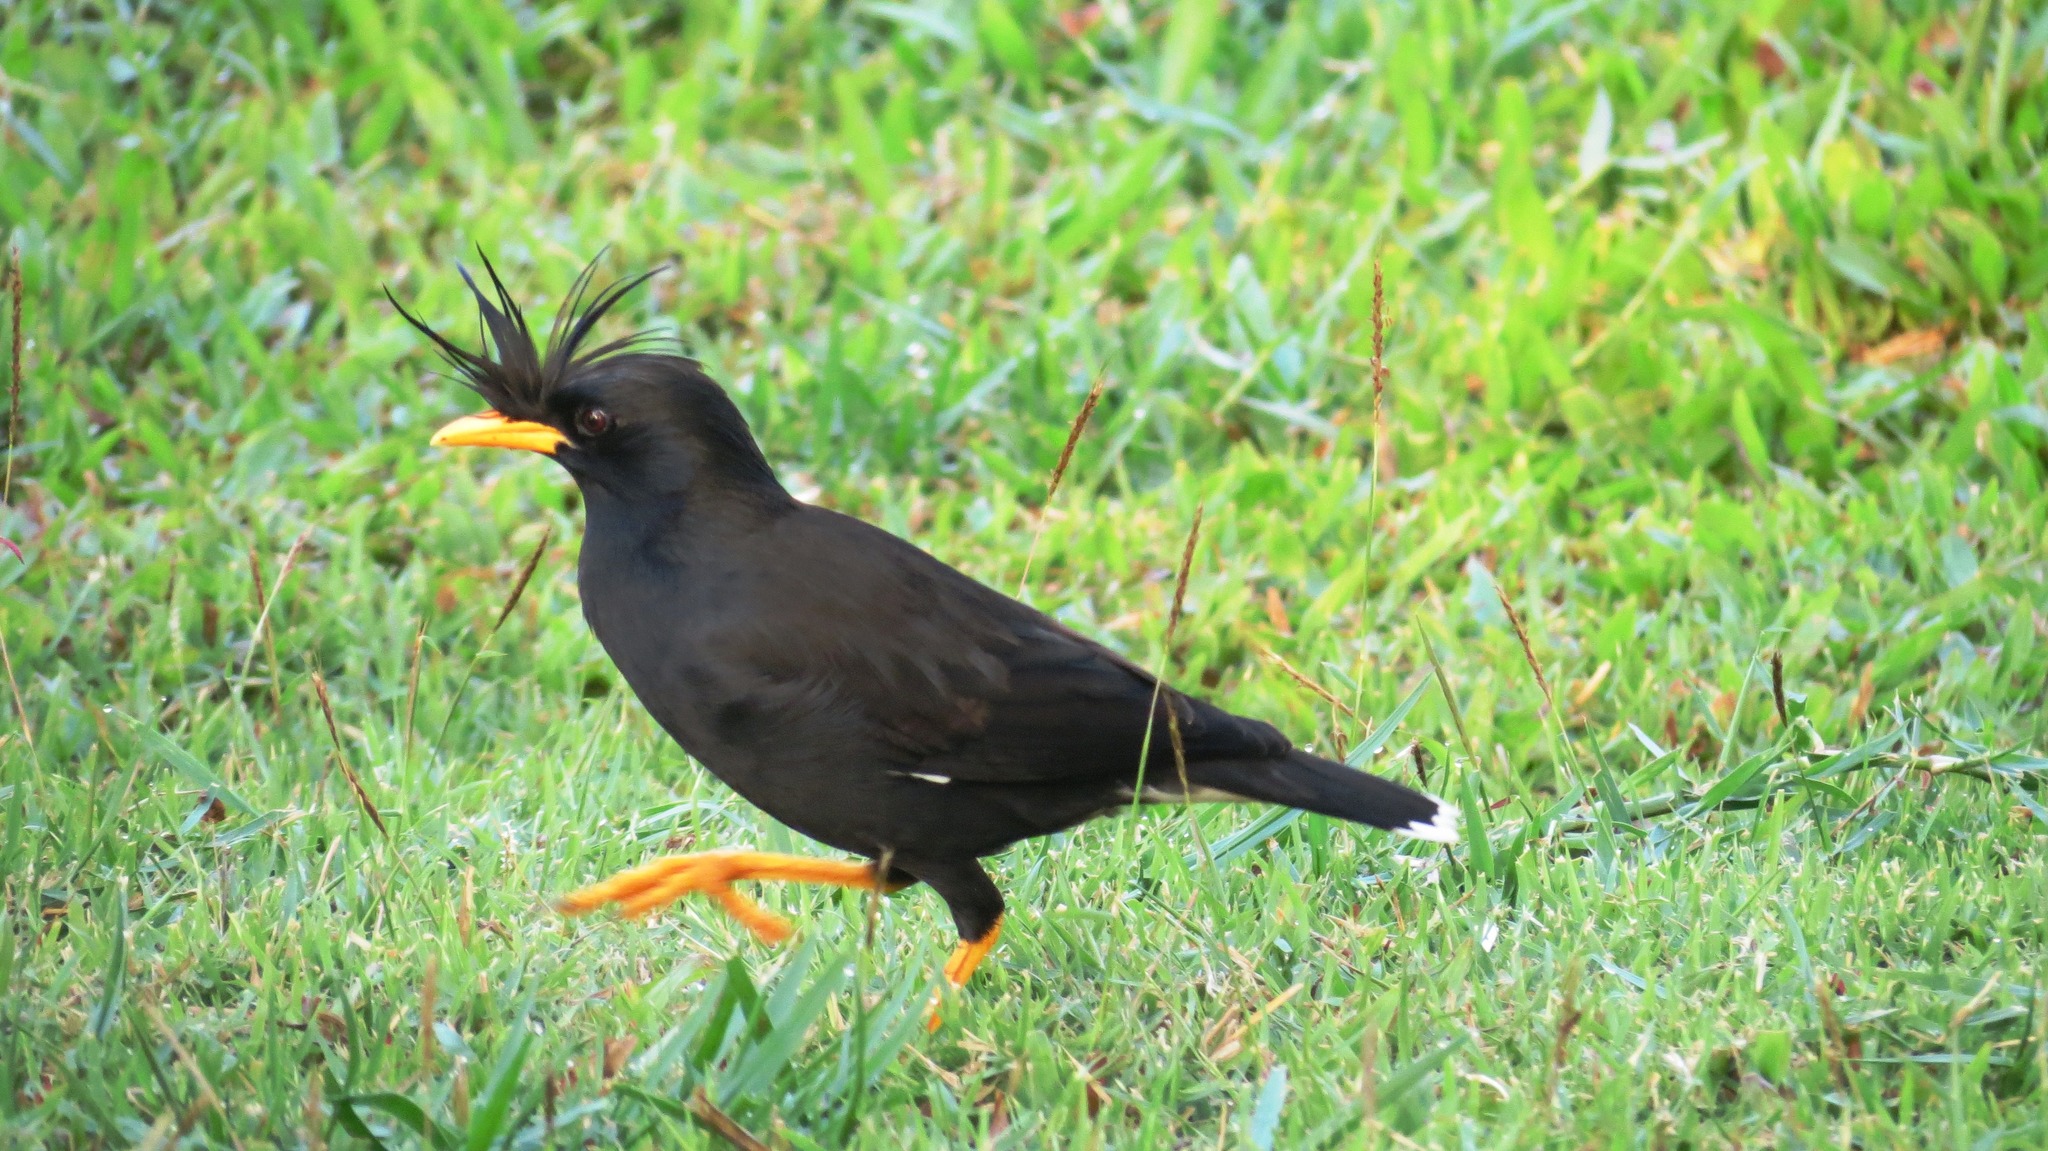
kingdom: Animalia
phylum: Chordata
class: Aves
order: Passeriformes
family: Sturnidae
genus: Acridotheres
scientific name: Acridotheres grandis
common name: Great myna
